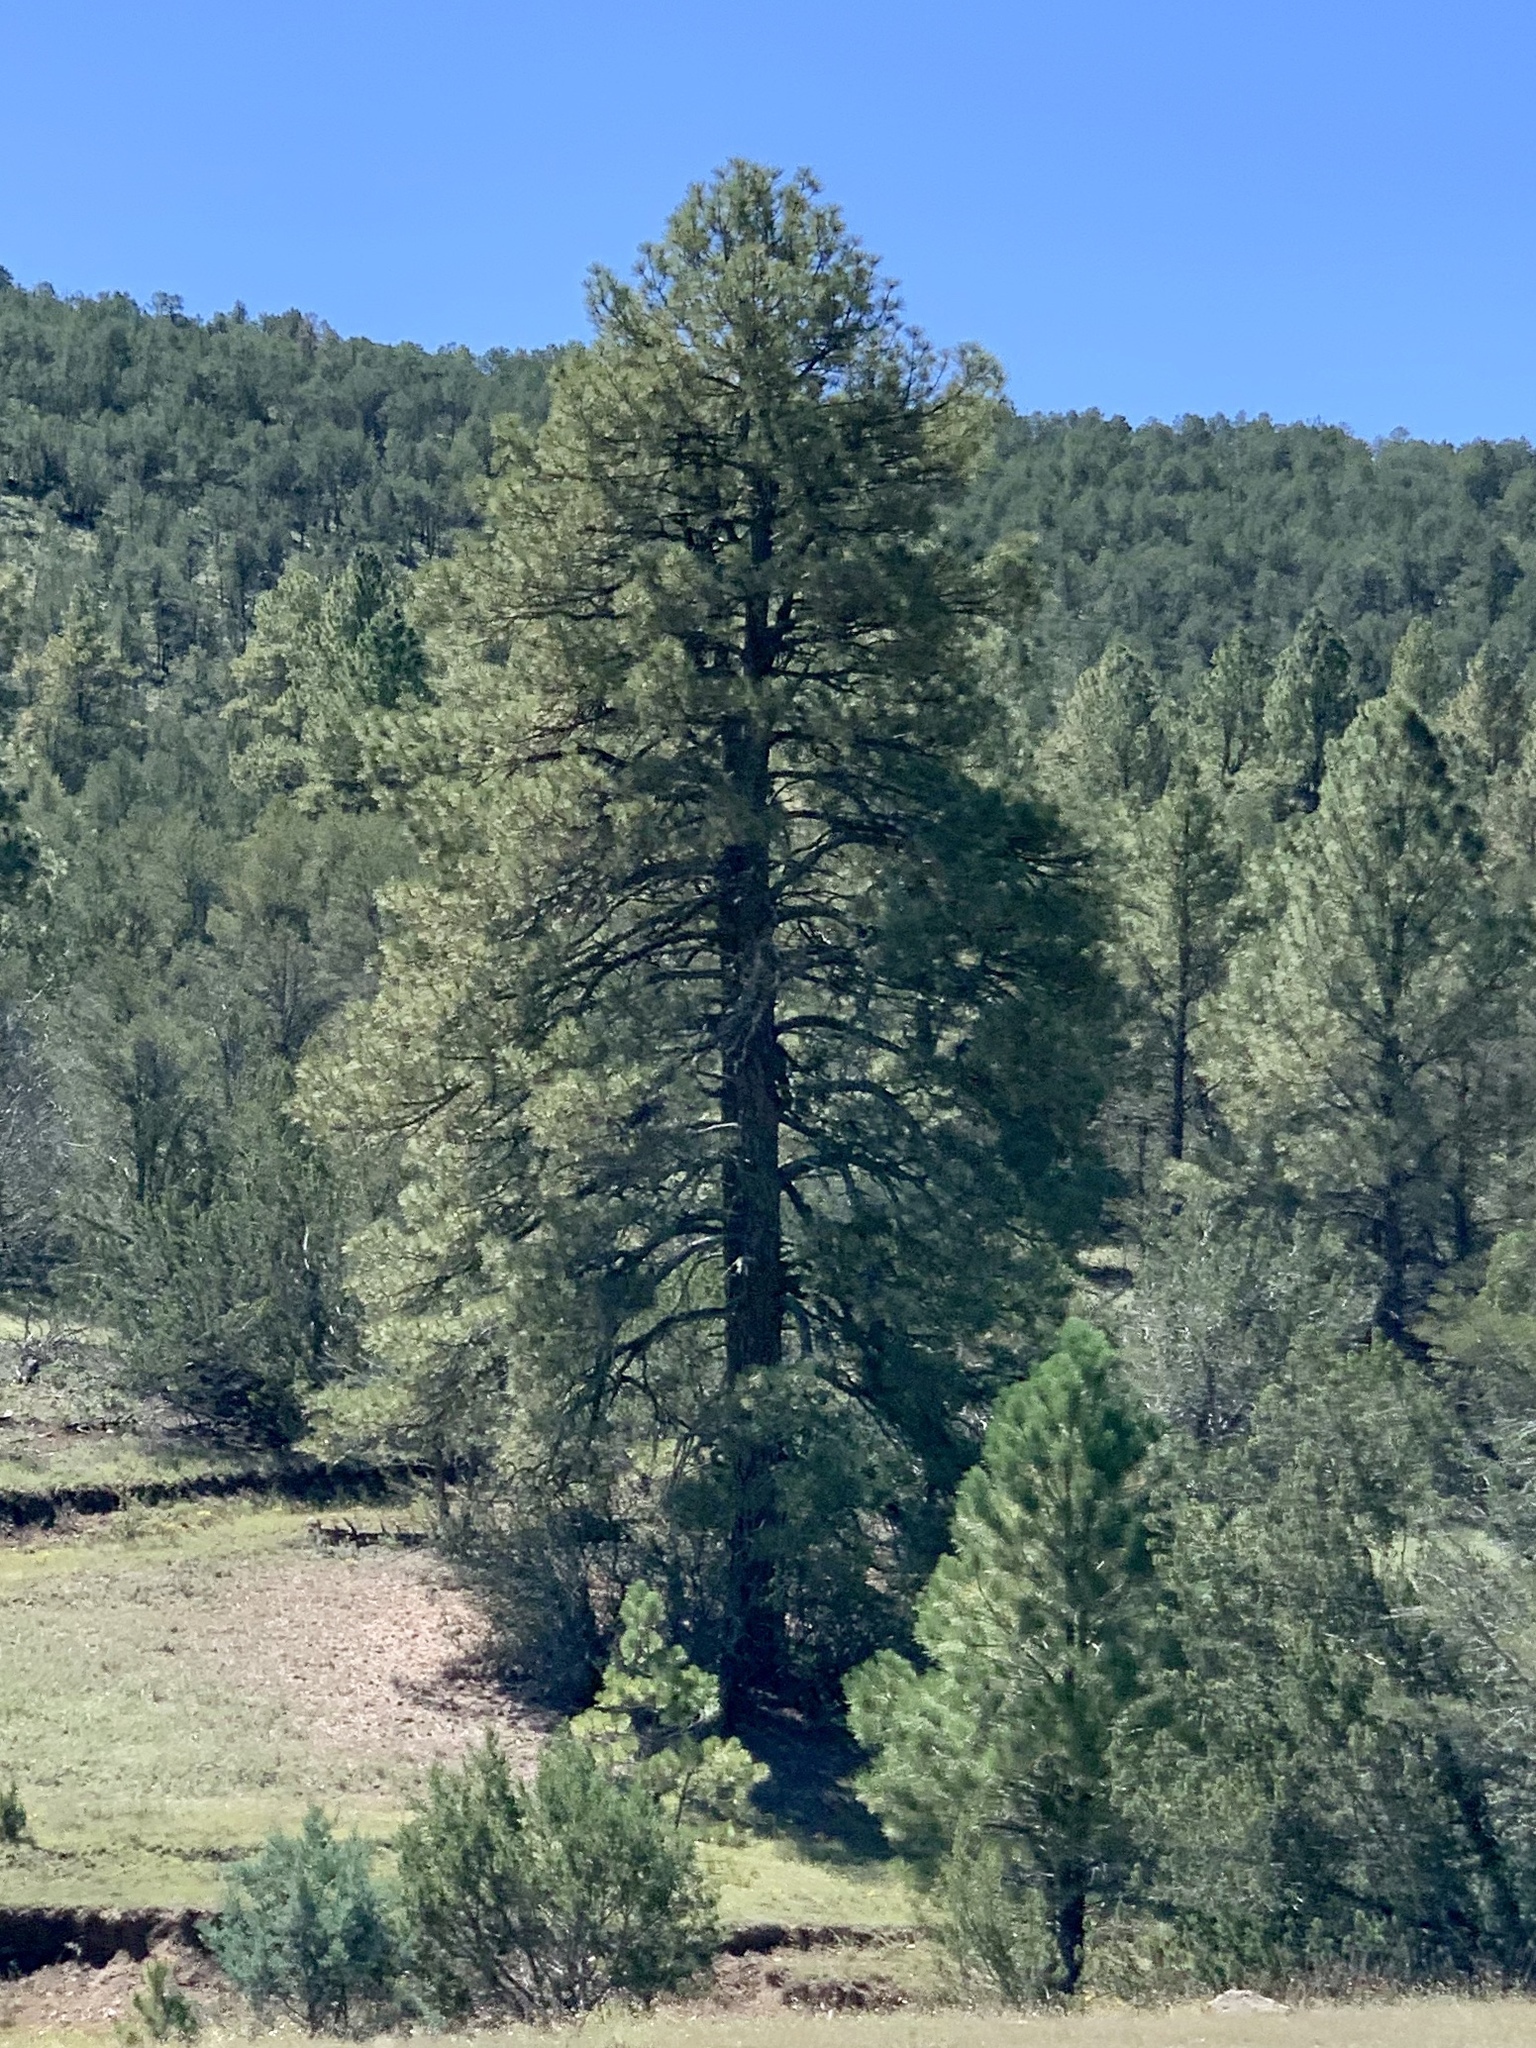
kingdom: Plantae
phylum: Tracheophyta
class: Pinopsida
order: Pinales
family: Pinaceae
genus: Pinus
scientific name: Pinus ponderosa
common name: Western yellow-pine
